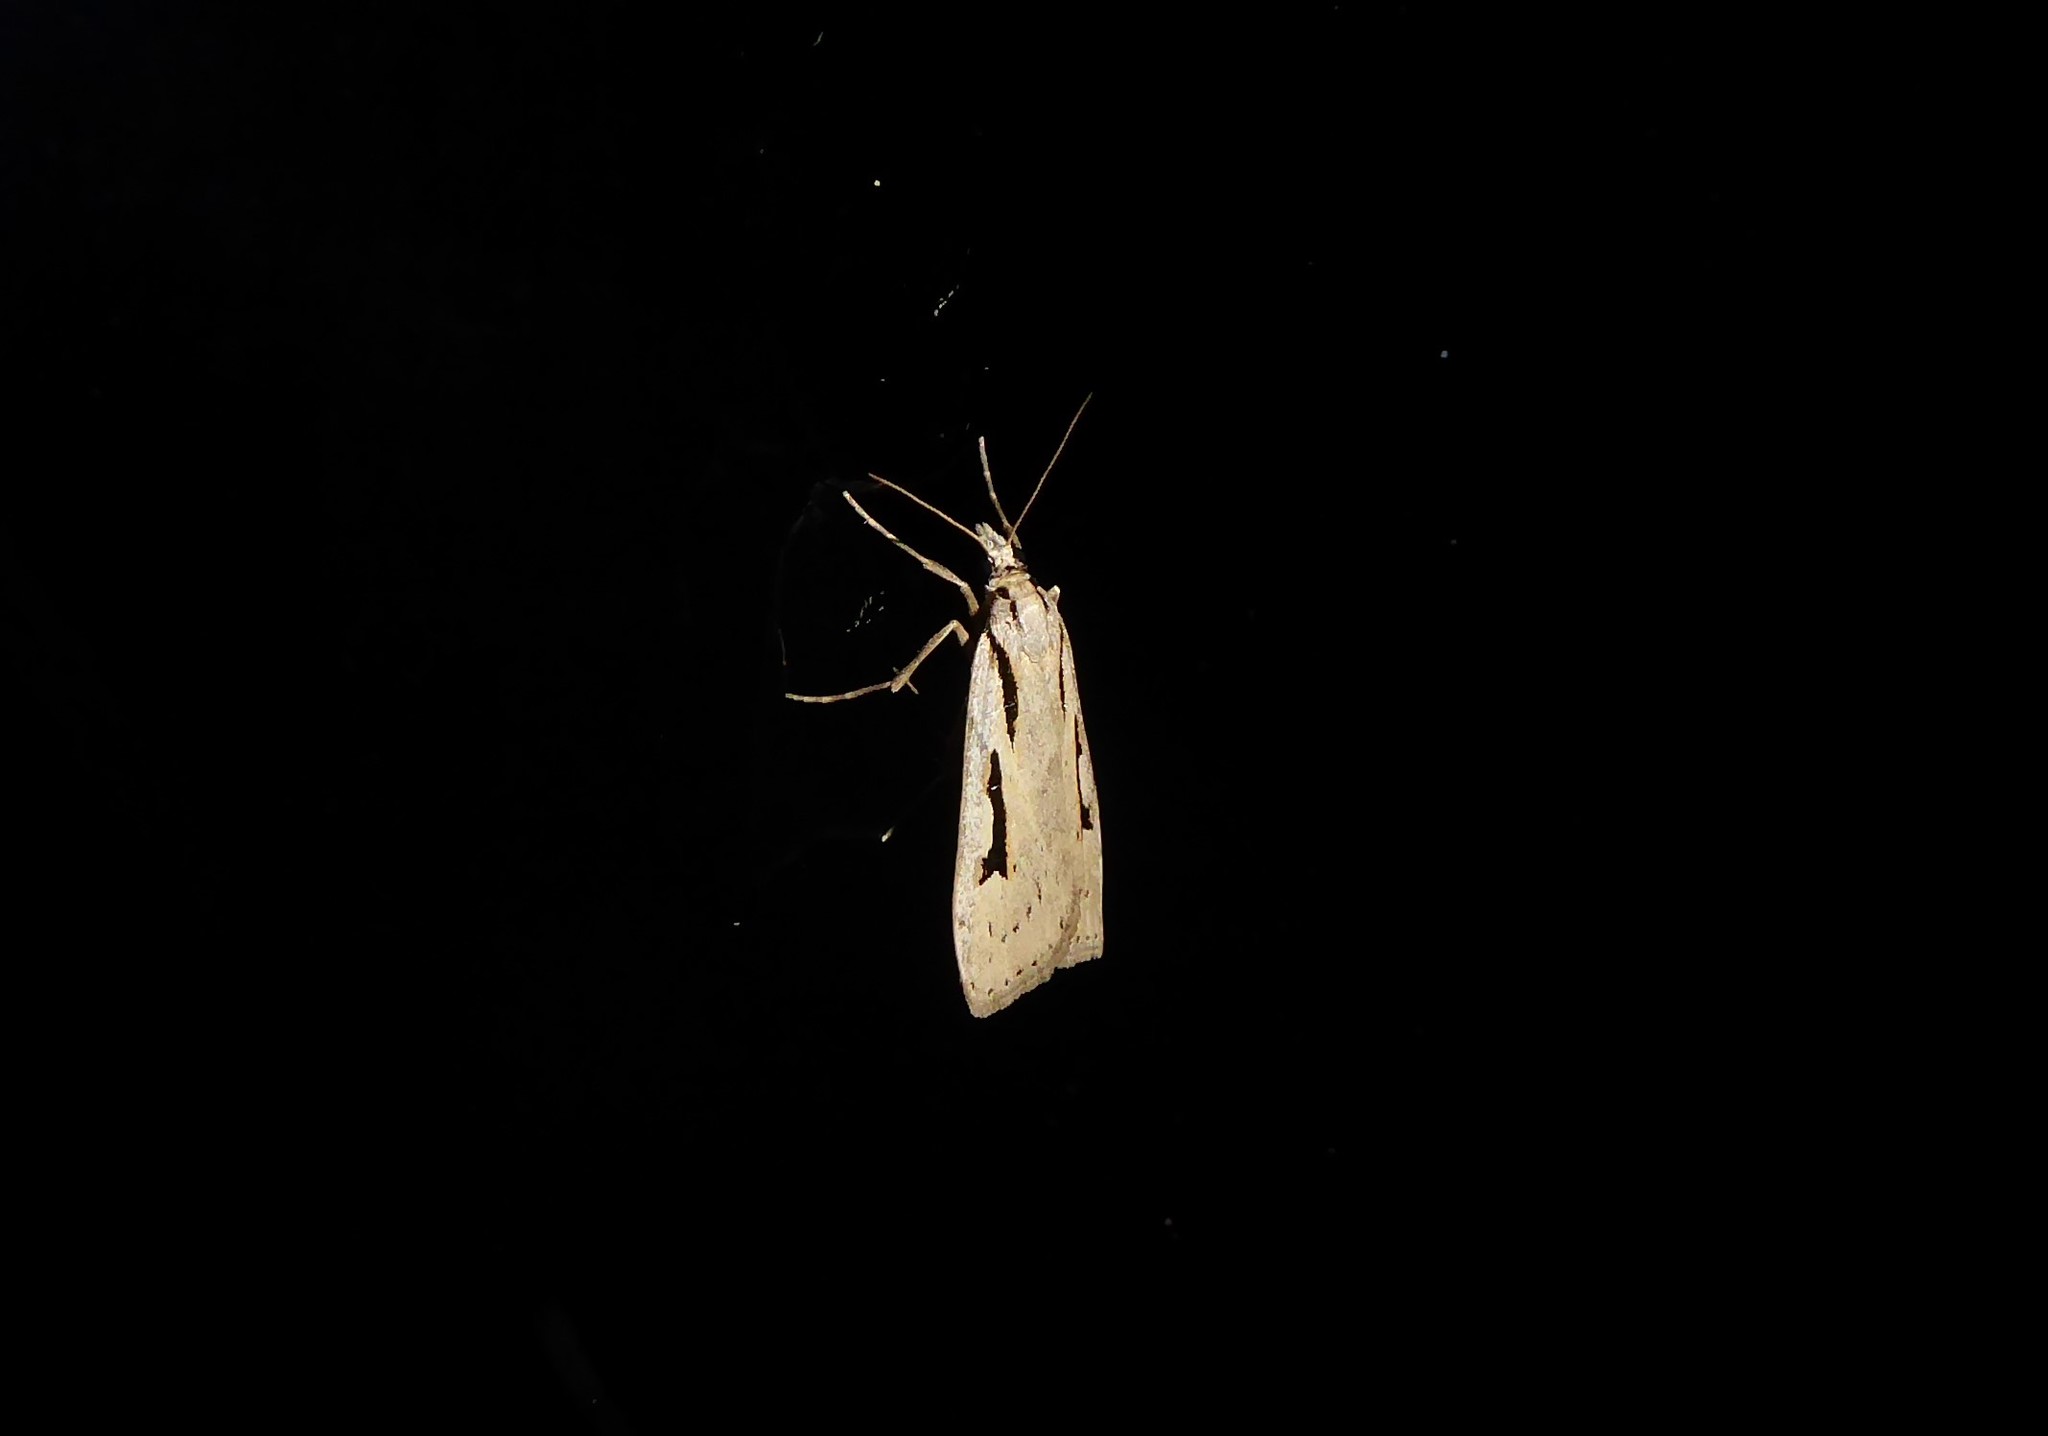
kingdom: Animalia
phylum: Arthropoda
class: Insecta
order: Lepidoptera
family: Crambidae
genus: Scoparia
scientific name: Scoparia rotuellus
